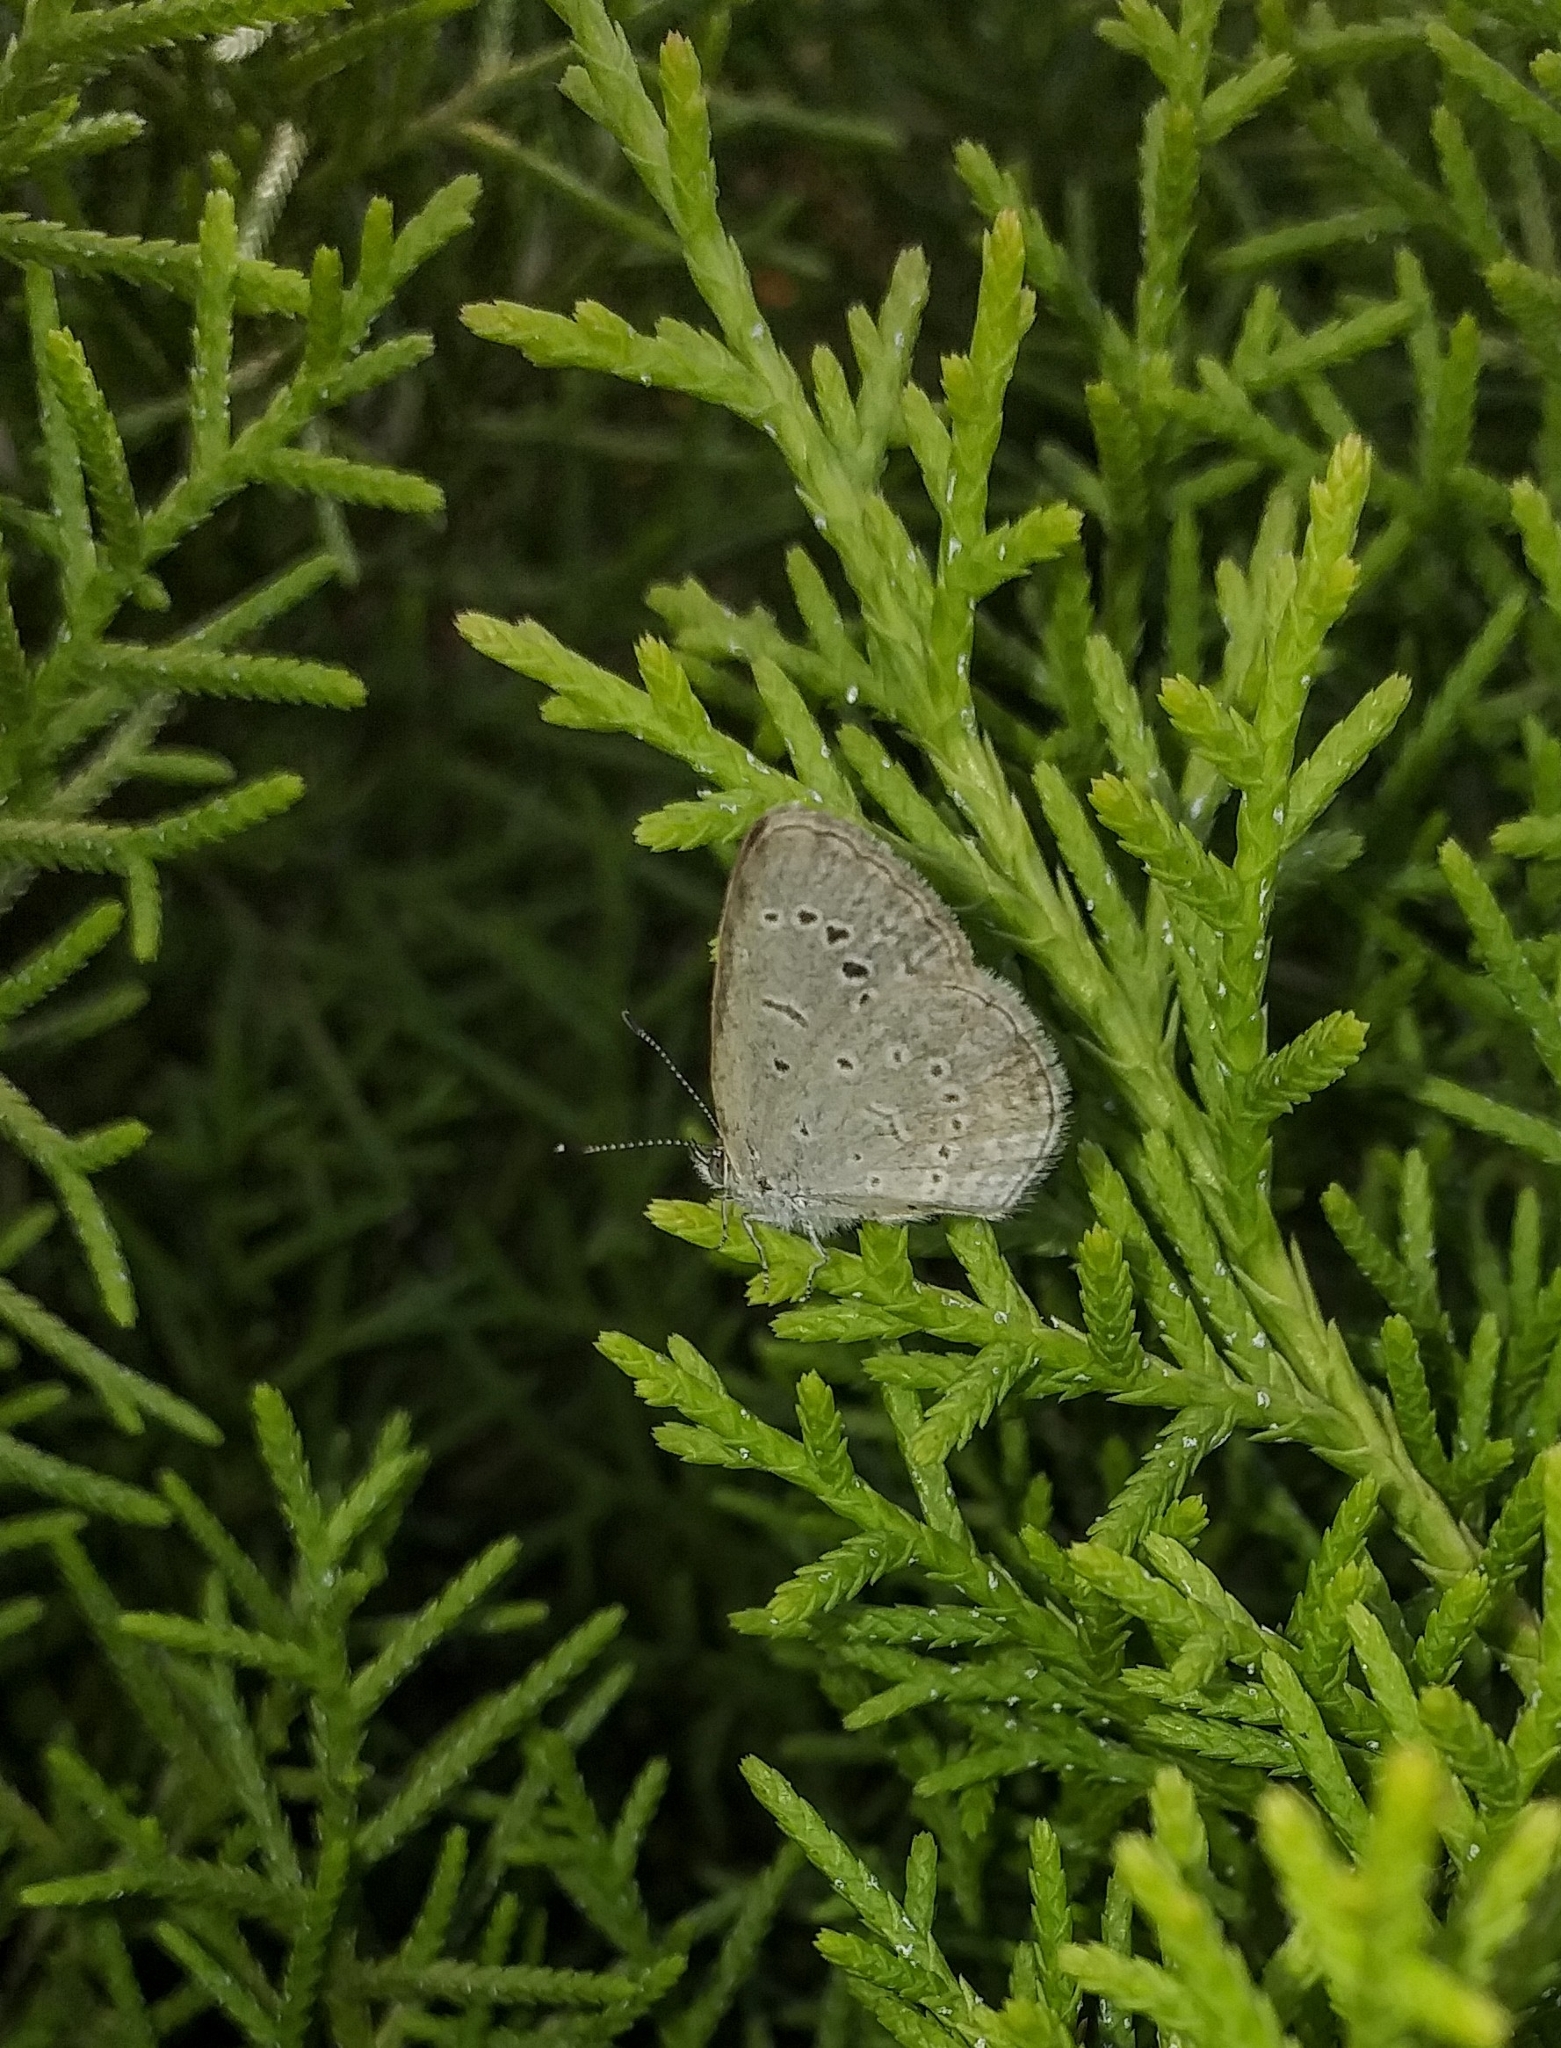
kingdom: Animalia
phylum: Arthropoda
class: Insecta
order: Lepidoptera
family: Lycaenidae
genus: Zizeeria
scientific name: Zizeeria karsandra
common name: Dark grass blue
